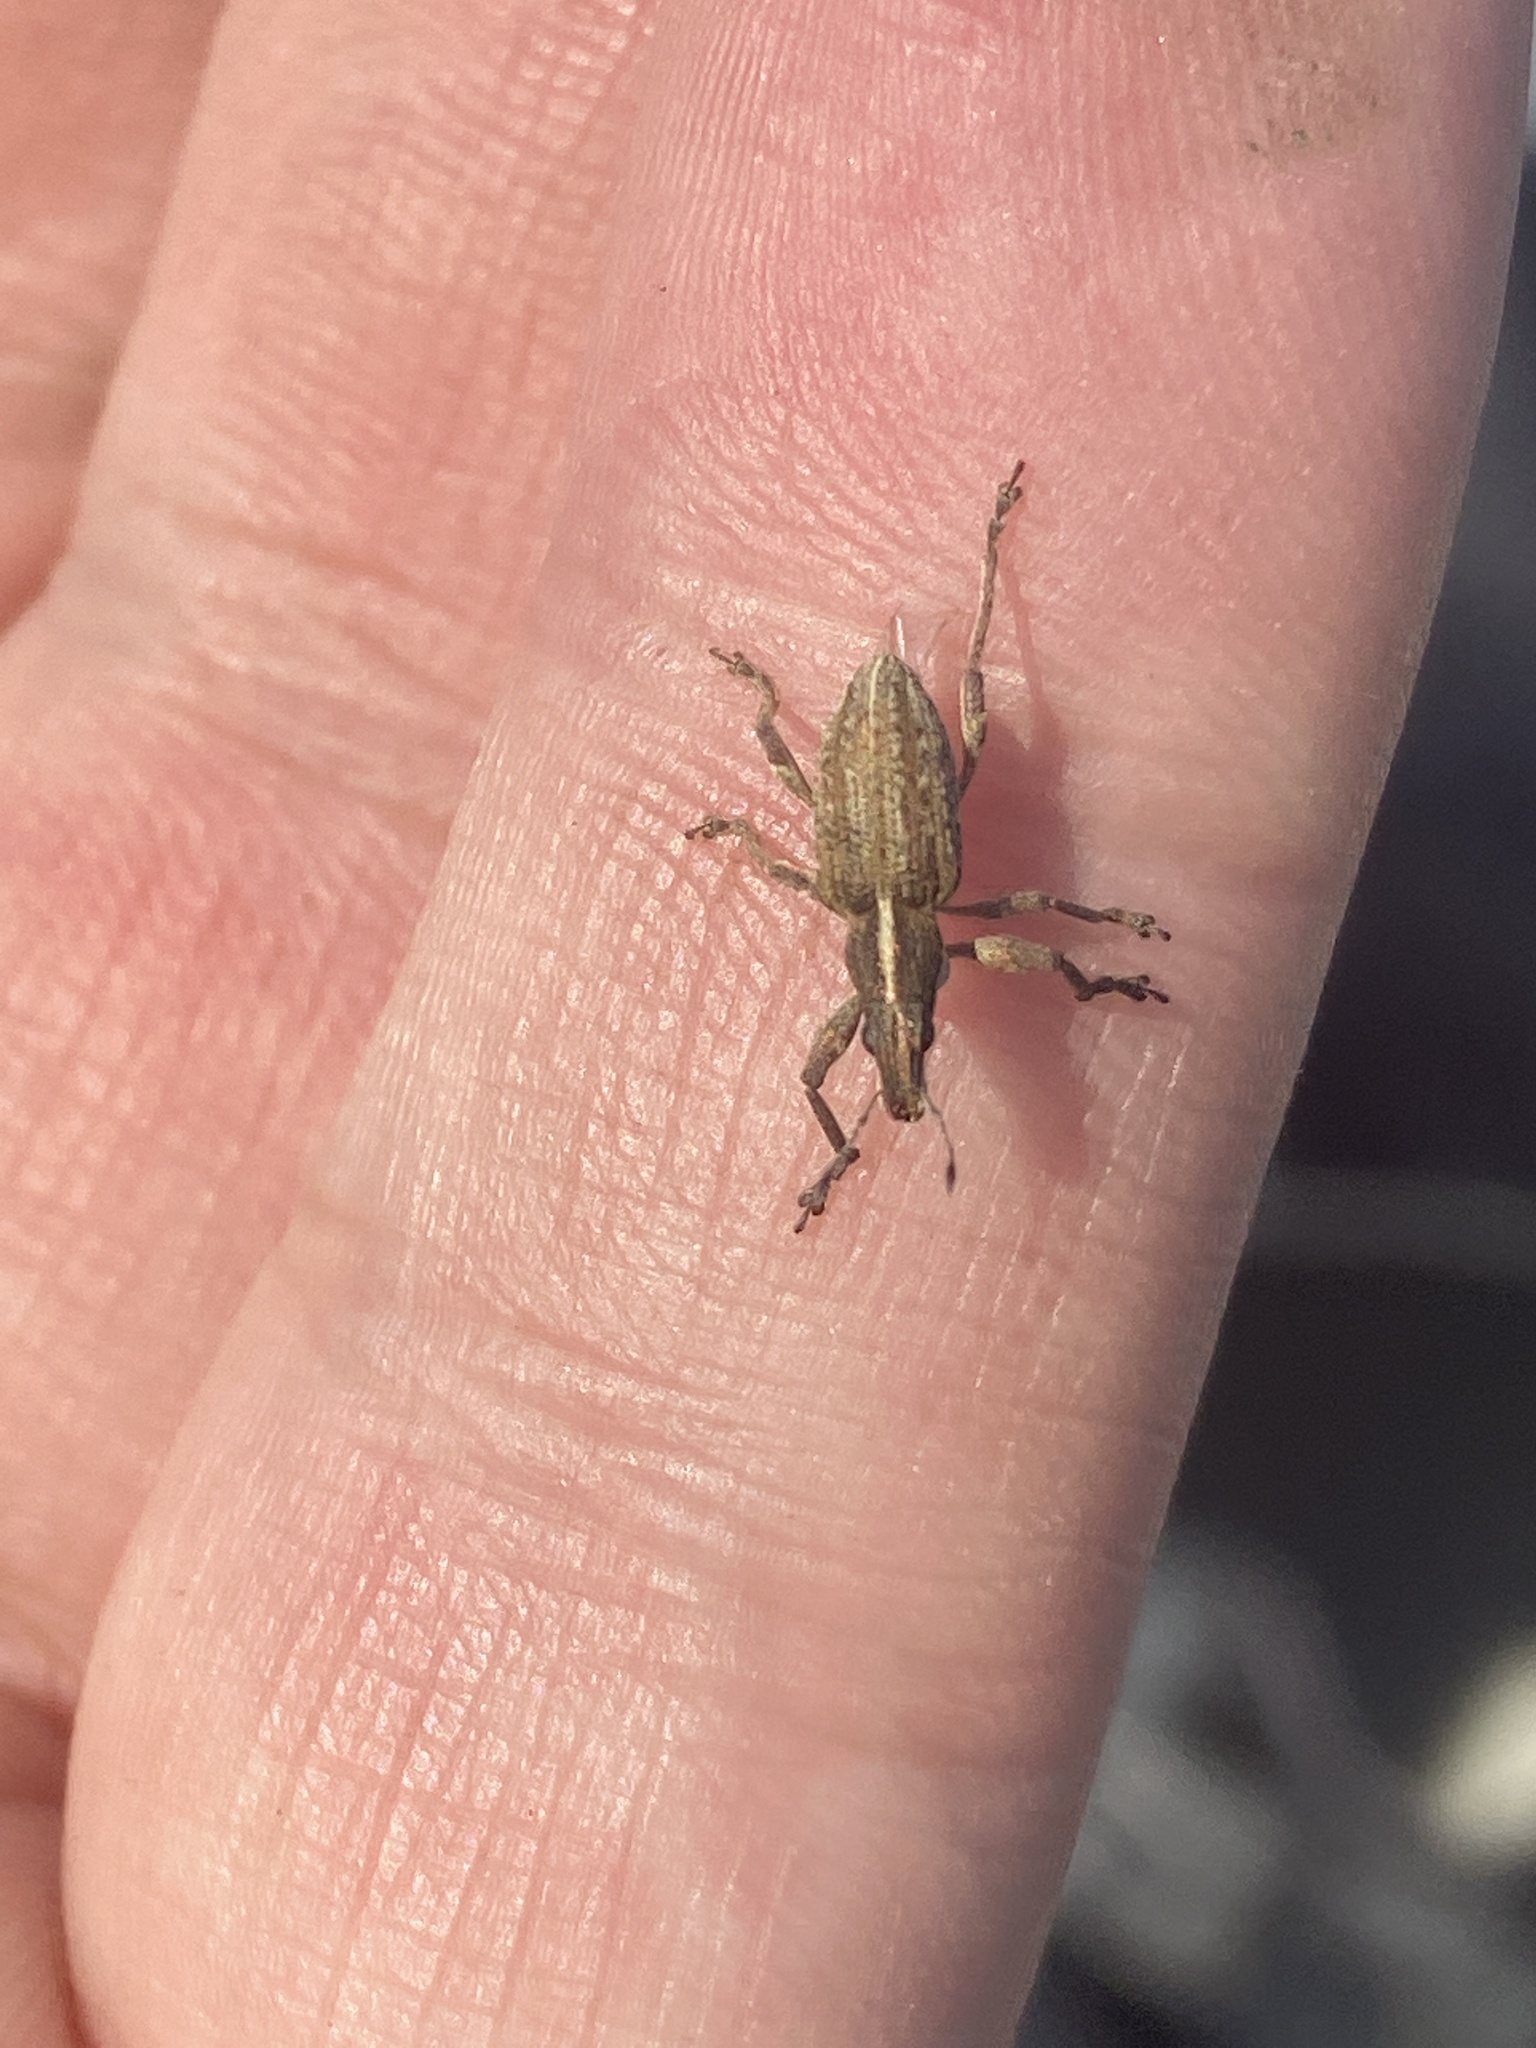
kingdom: Animalia
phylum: Arthropoda
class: Insecta
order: Coleoptera
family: Curculionidae
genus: Charagmus
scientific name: Charagmus gressorius
